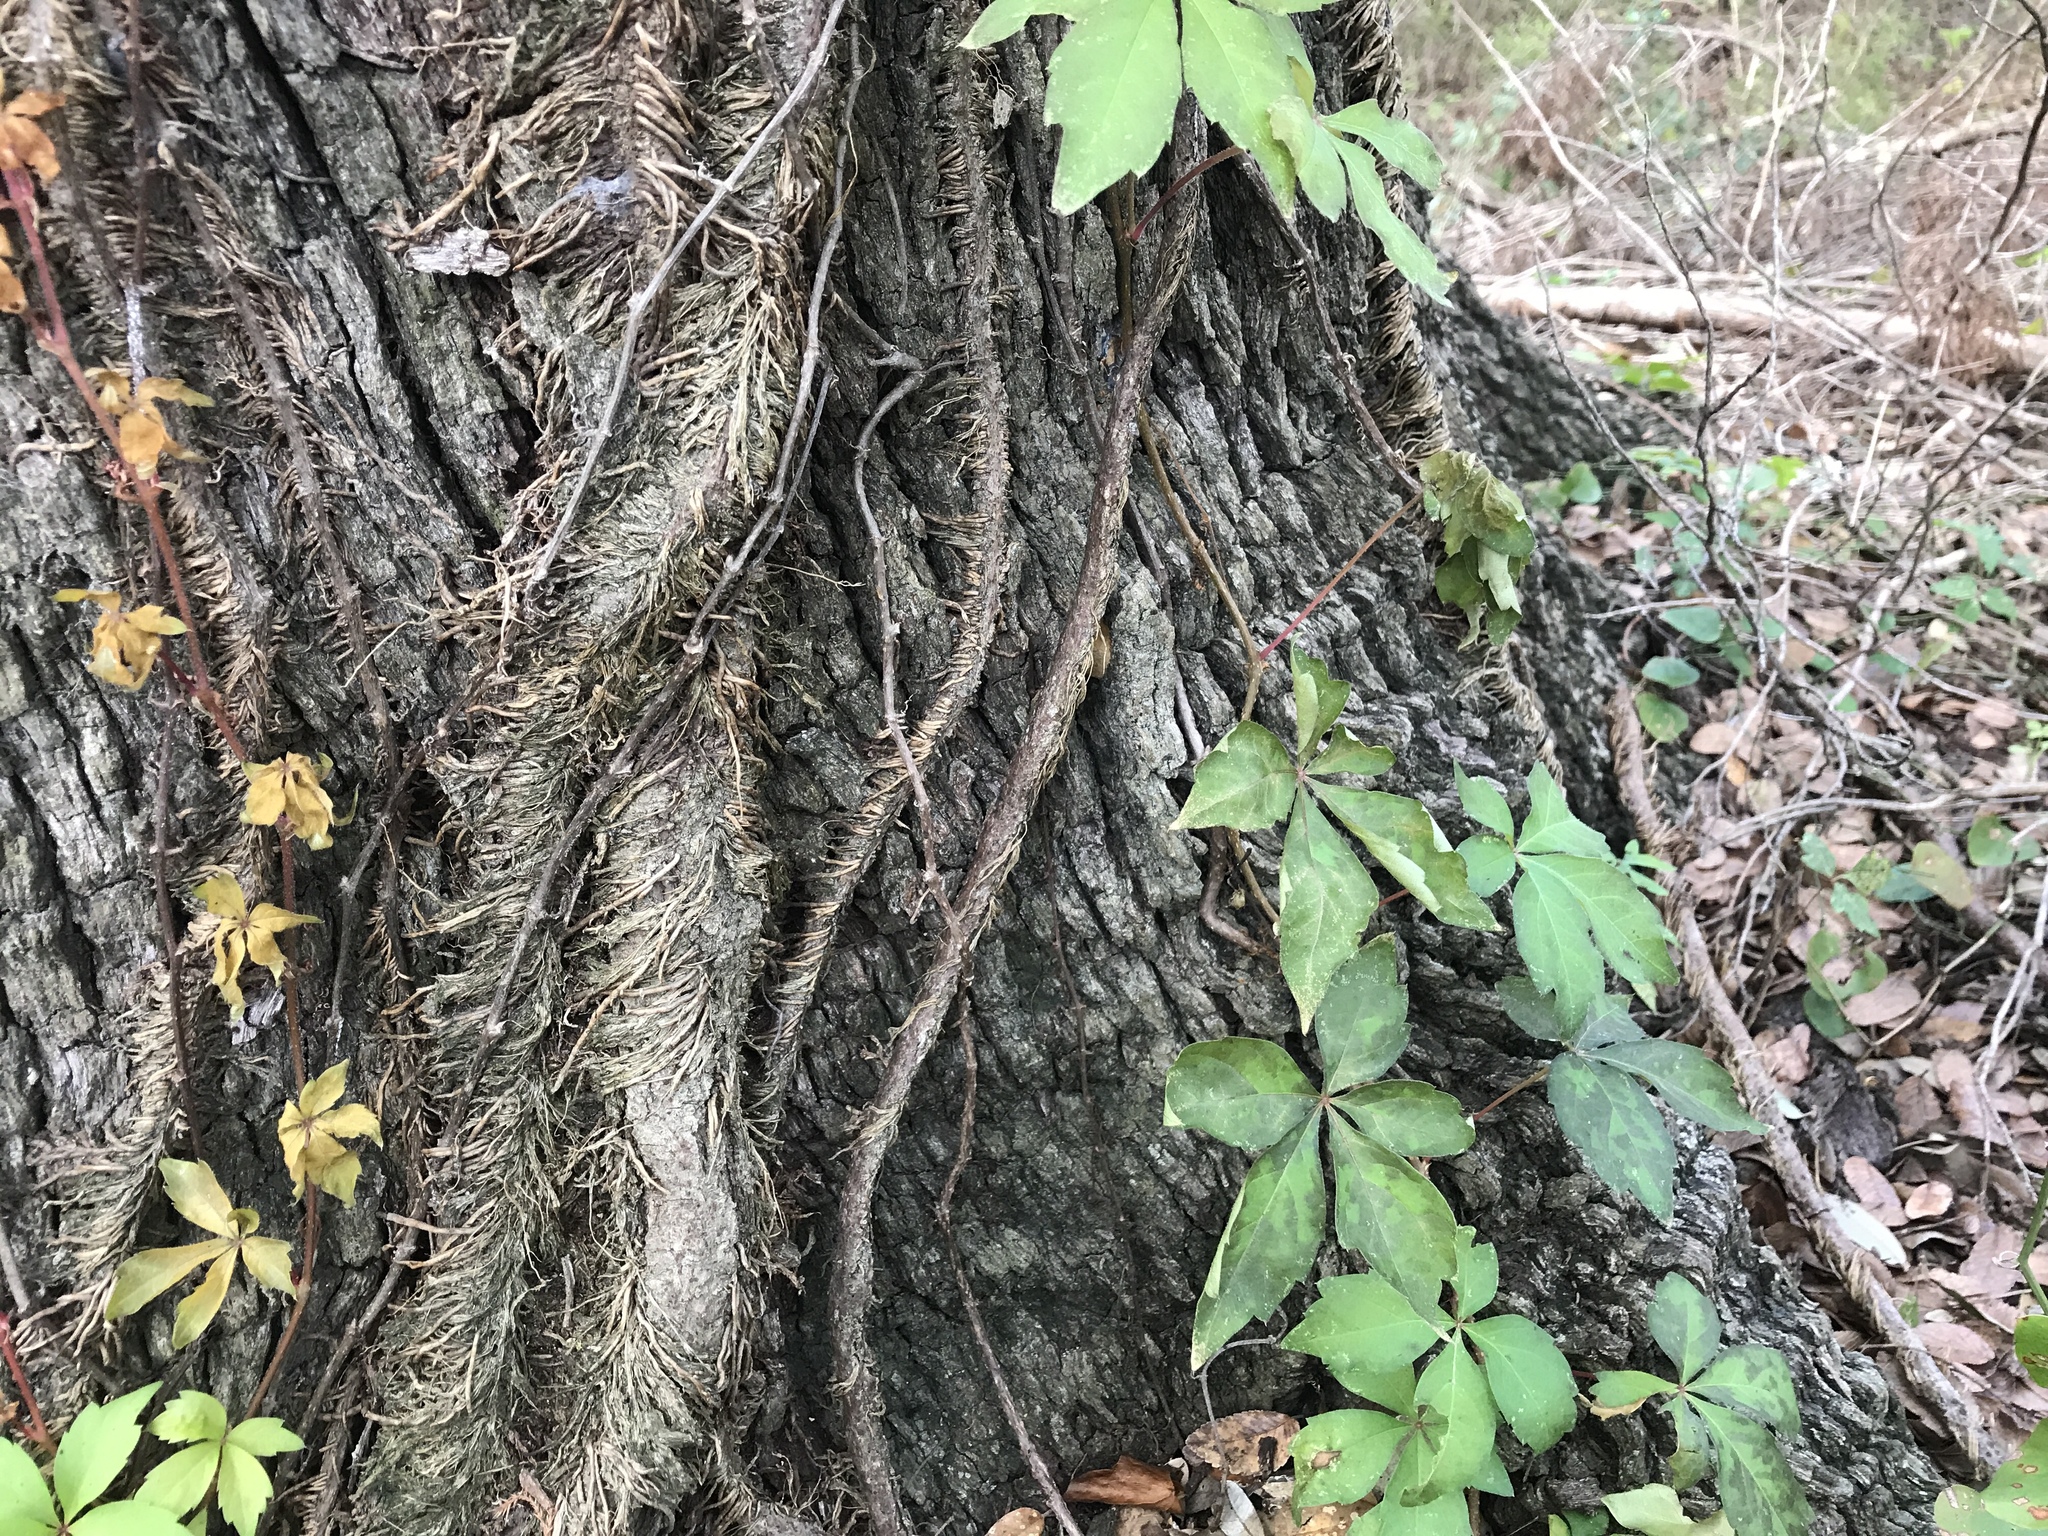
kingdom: Plantae
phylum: Tracheophyta
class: Magnoliopsida
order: Vitales
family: Vitaceae
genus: Parthenocissus
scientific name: Parthenocissus quinquefolia
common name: Virginia-creeper
